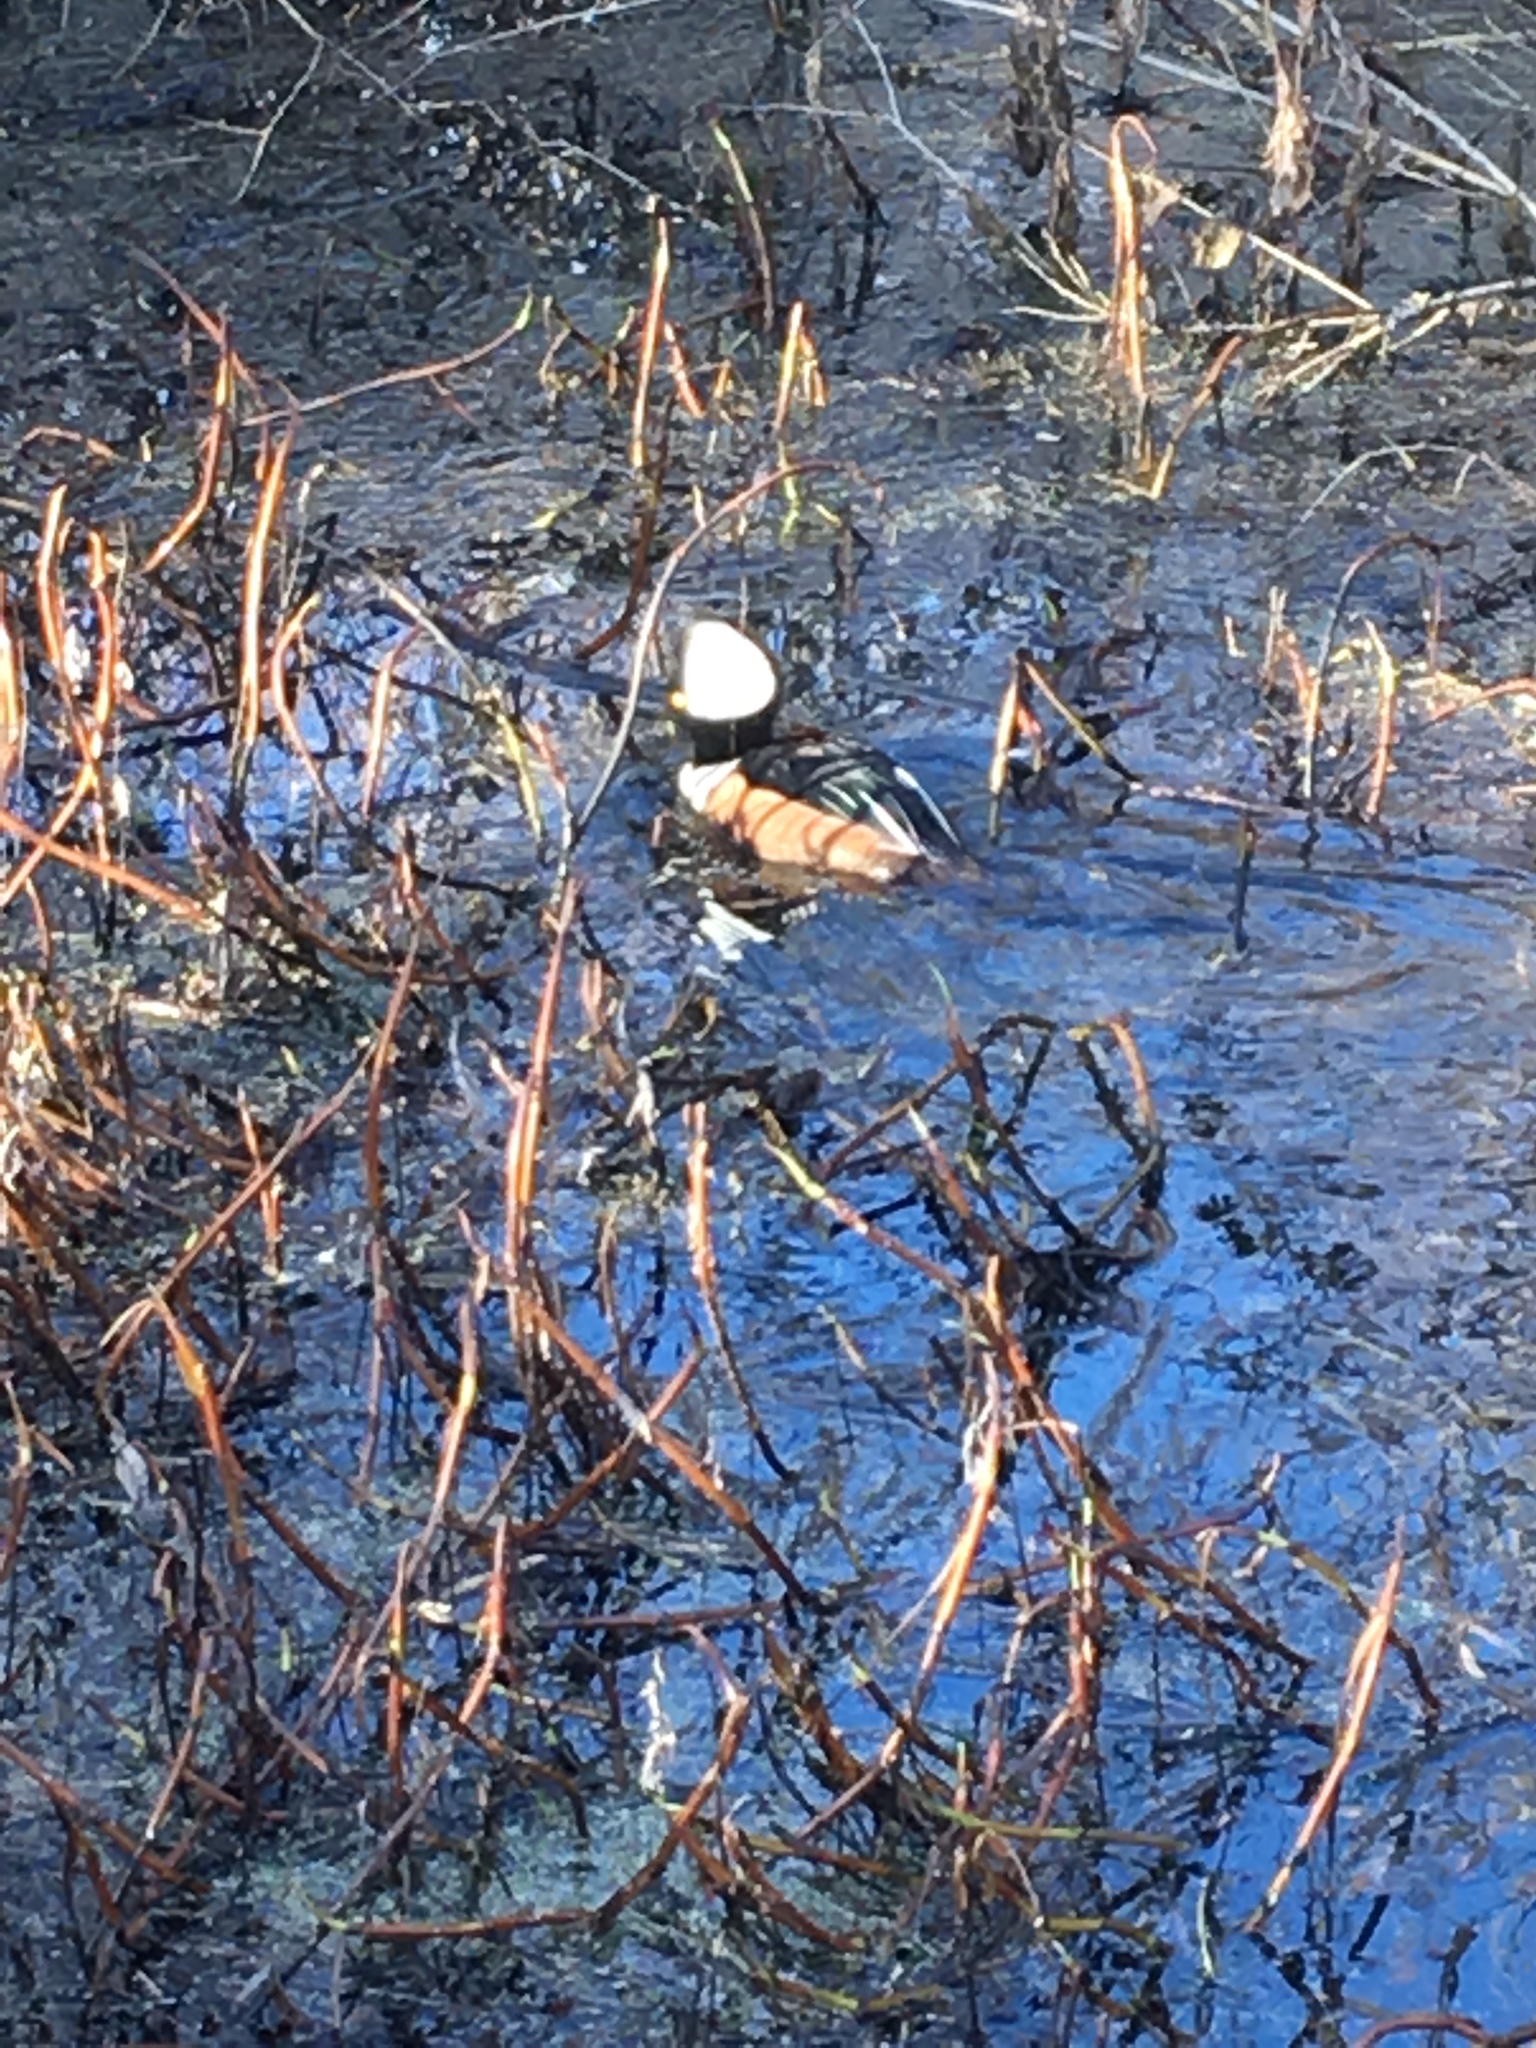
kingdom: Animalia
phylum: Chordata
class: Aves
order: Anseriformes
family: Anatidae
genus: Lophodytes
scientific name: Lophodytes cucullatus
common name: Hooded merganser
